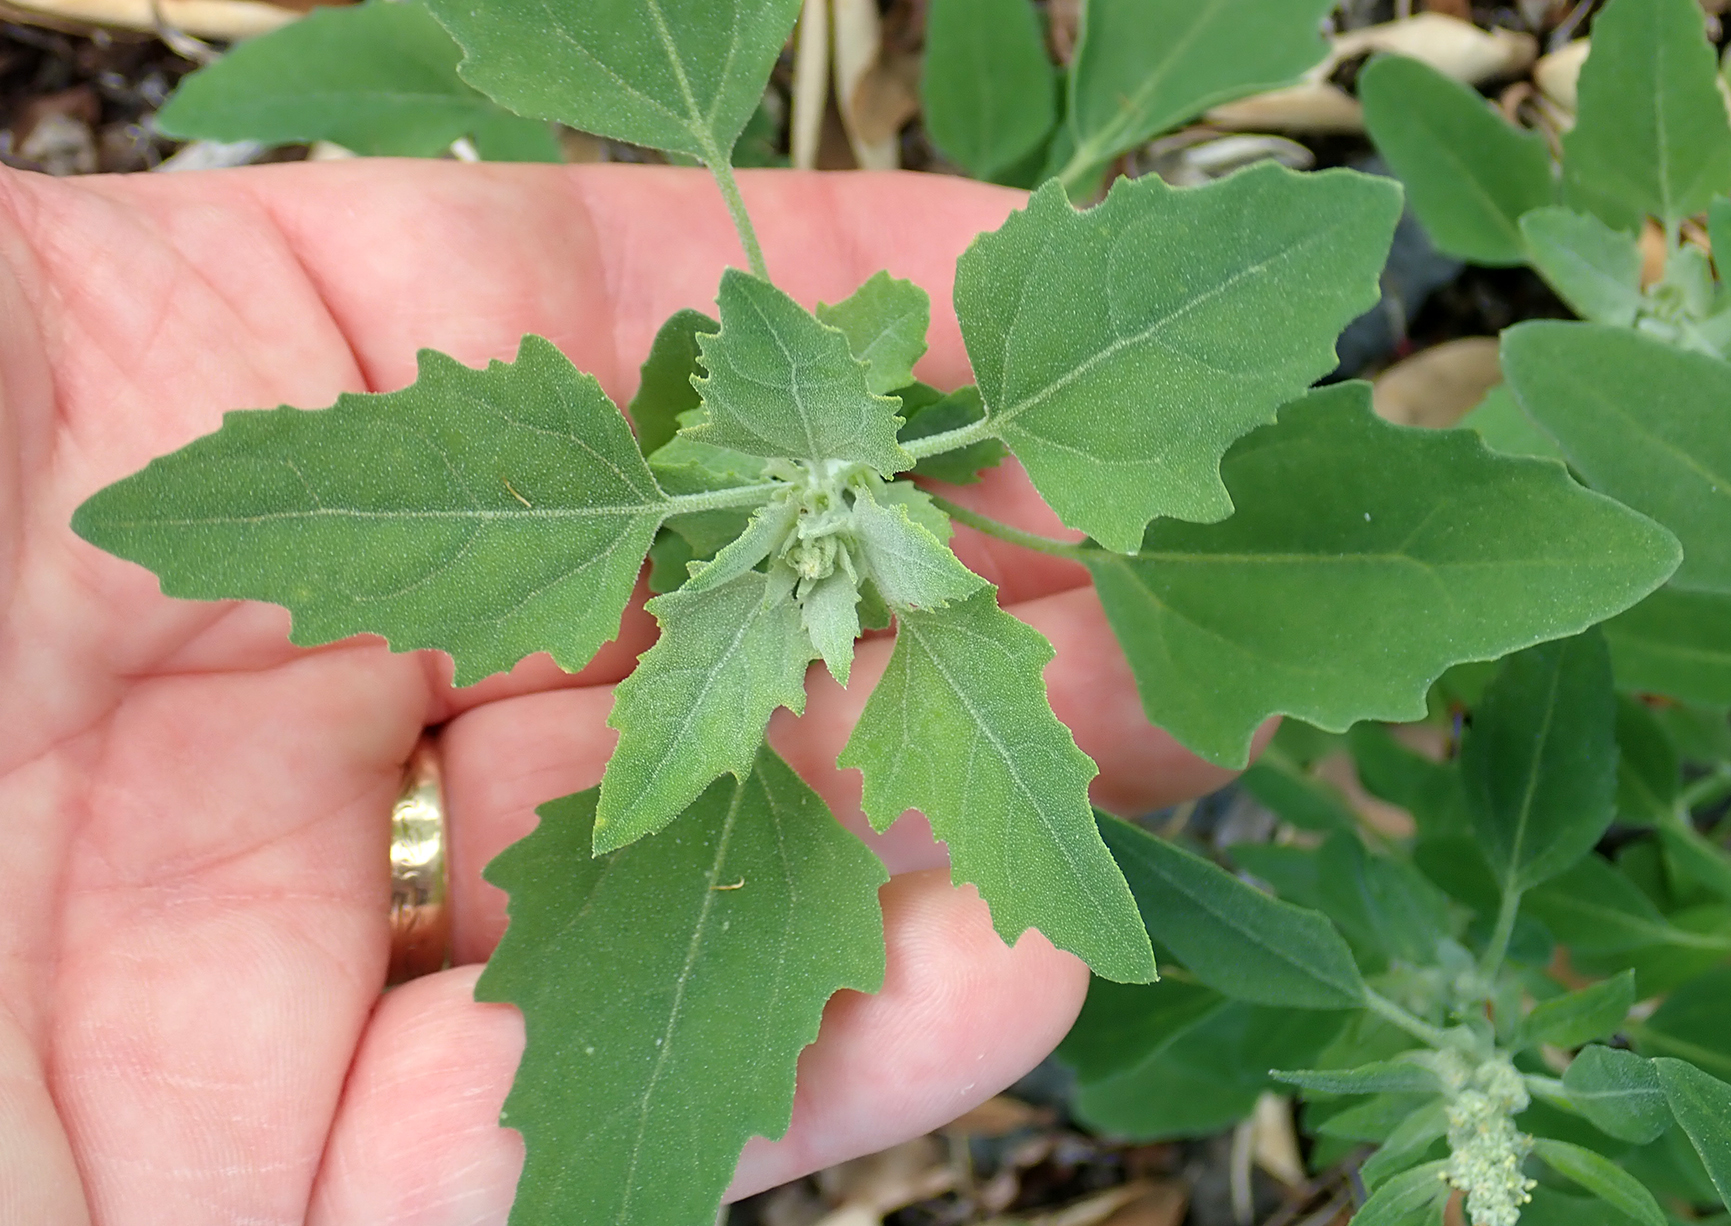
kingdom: Plantae
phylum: Tracheophyta
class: Magnoliopsida
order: Caryophyllales
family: Amaranthaceae
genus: Chenopodium
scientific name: Chenopodium album
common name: Fat-hen
